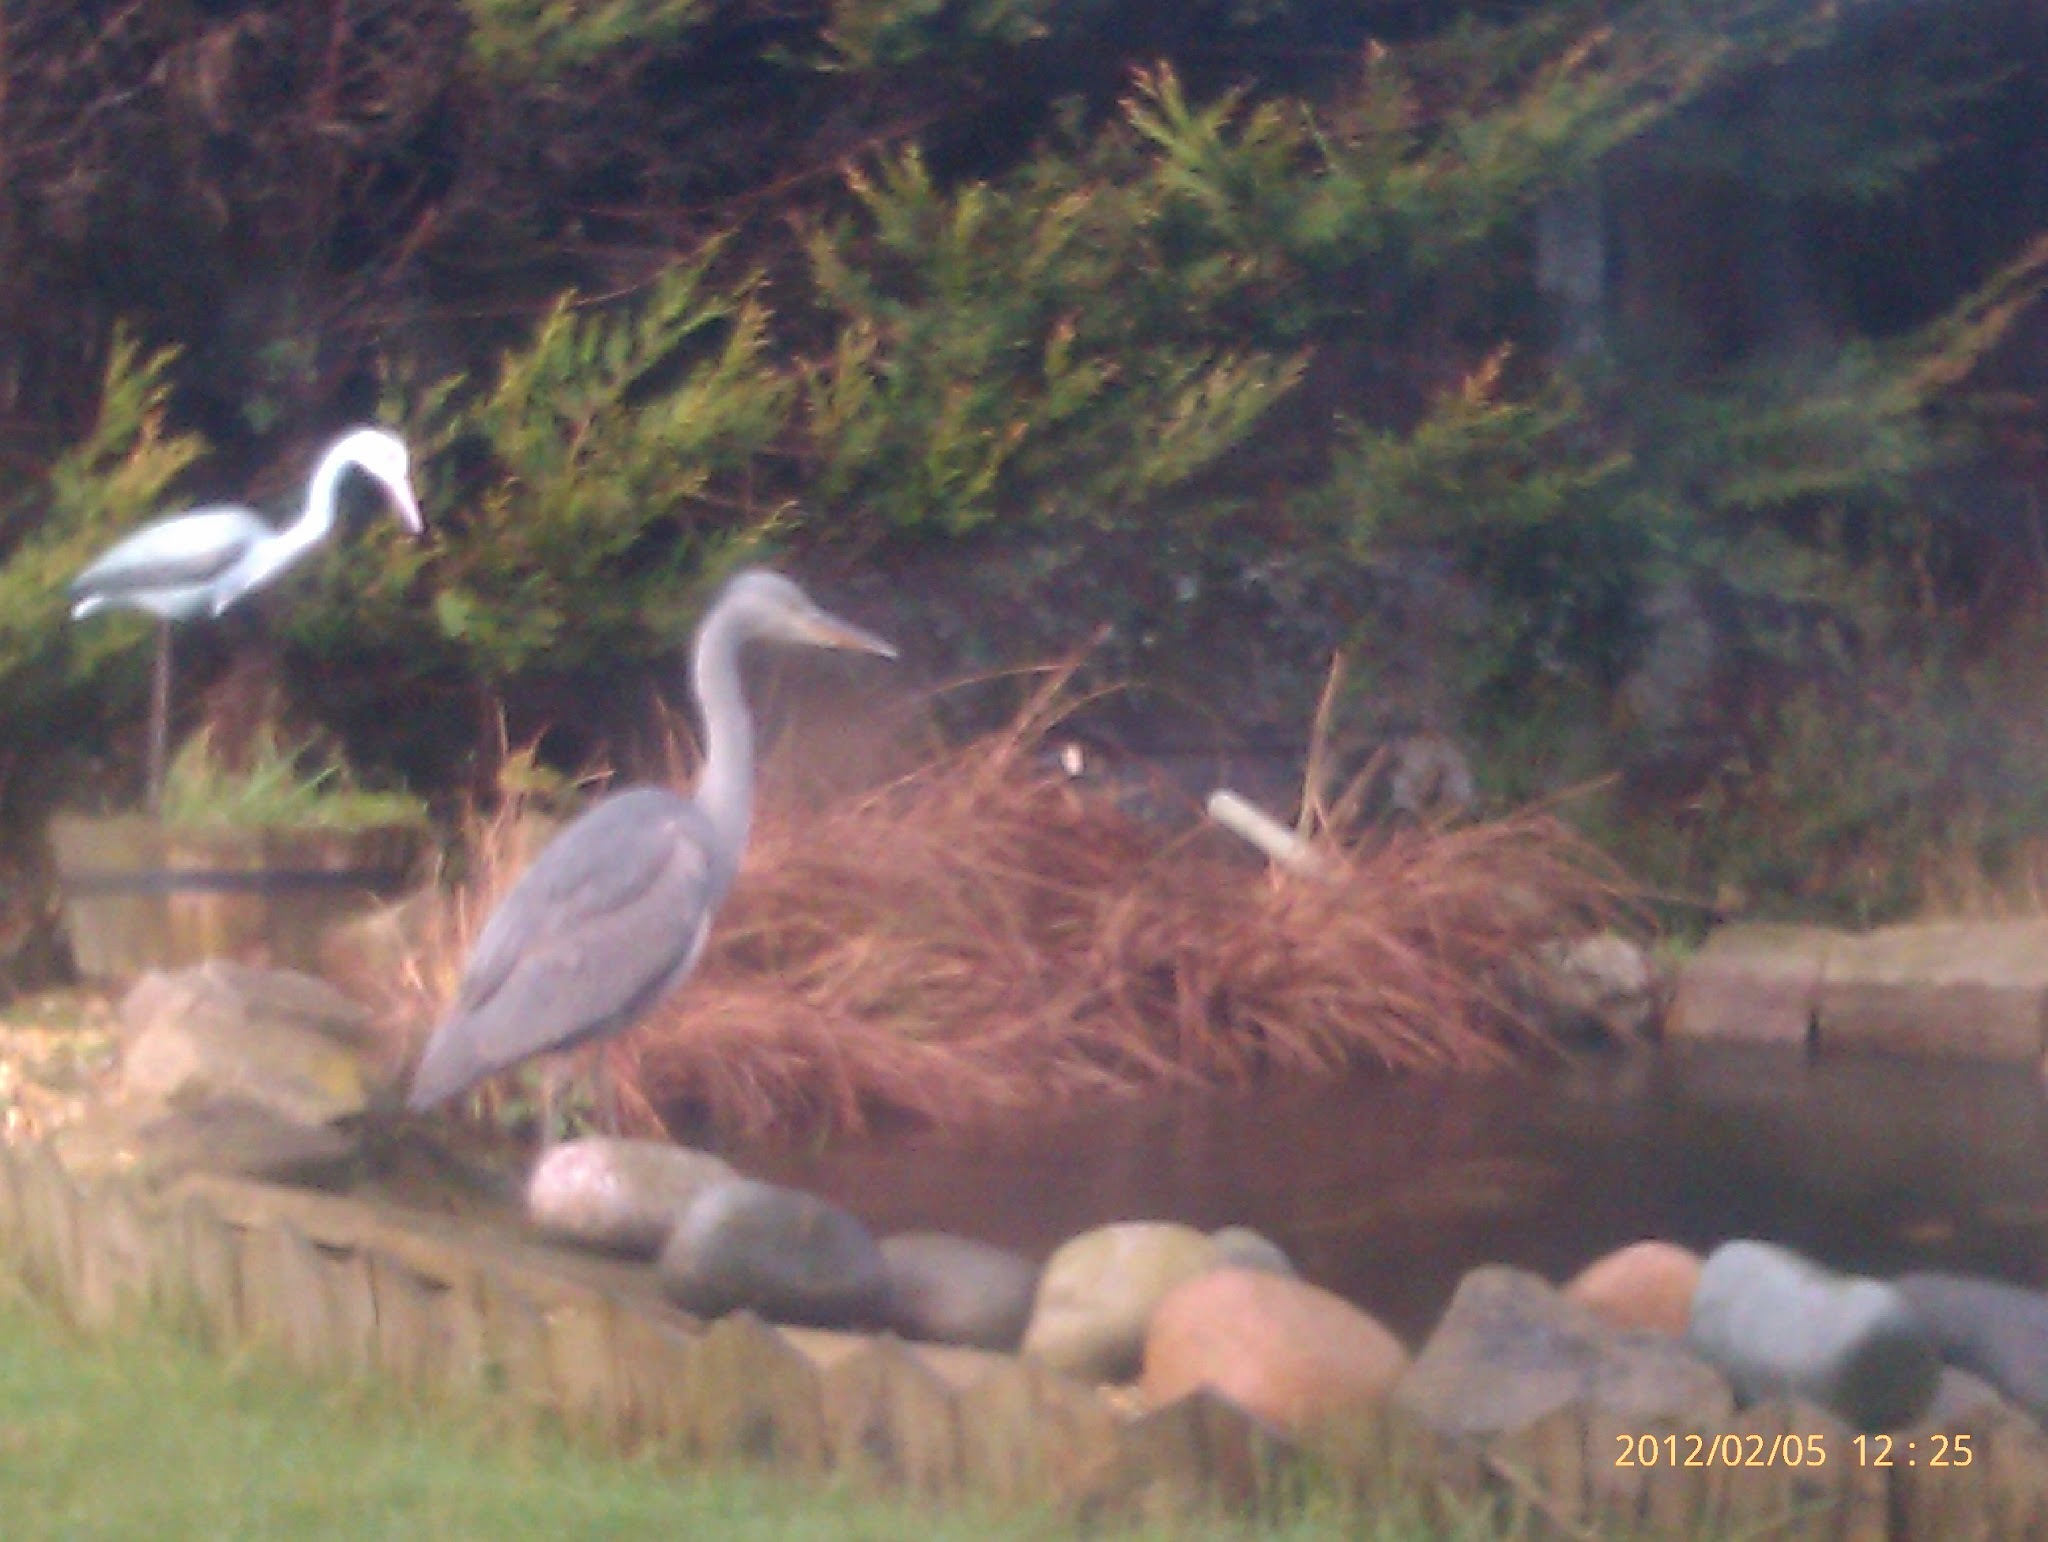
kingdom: Animalia
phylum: Chordata
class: Aves
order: Pelecaniformes
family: Ardeidae
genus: Ardea
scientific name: Ardea cinerea
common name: Grey heron
